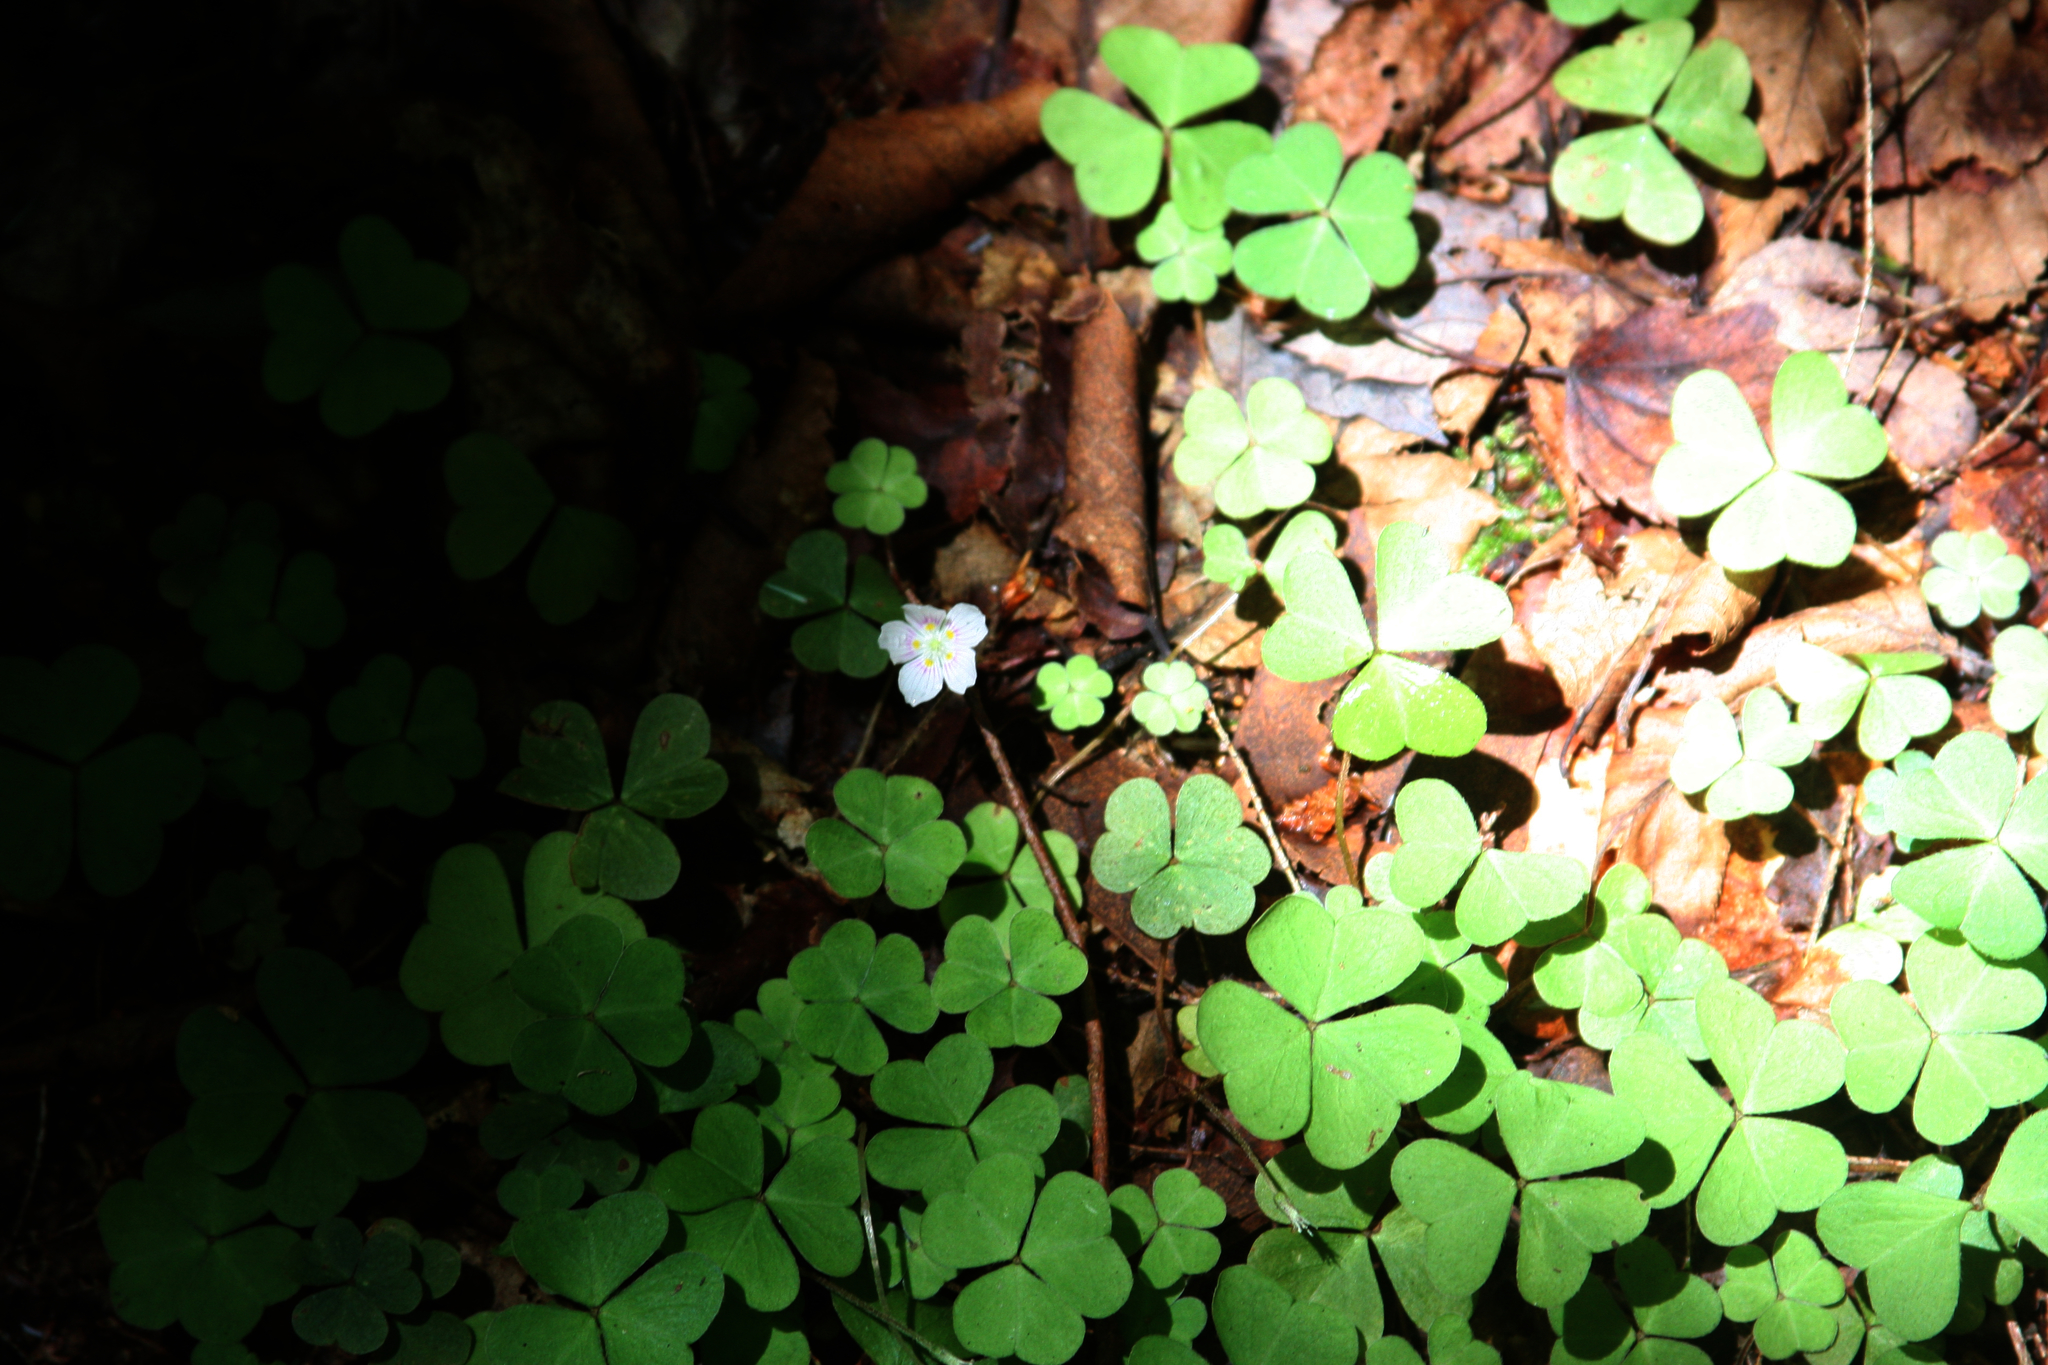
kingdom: Plantae
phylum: Tracheophyta
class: Magnoliopsida
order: Oxalidales
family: Oxalidaceae
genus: Oxalis
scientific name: Oxalis montana
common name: American wood-sorrel
